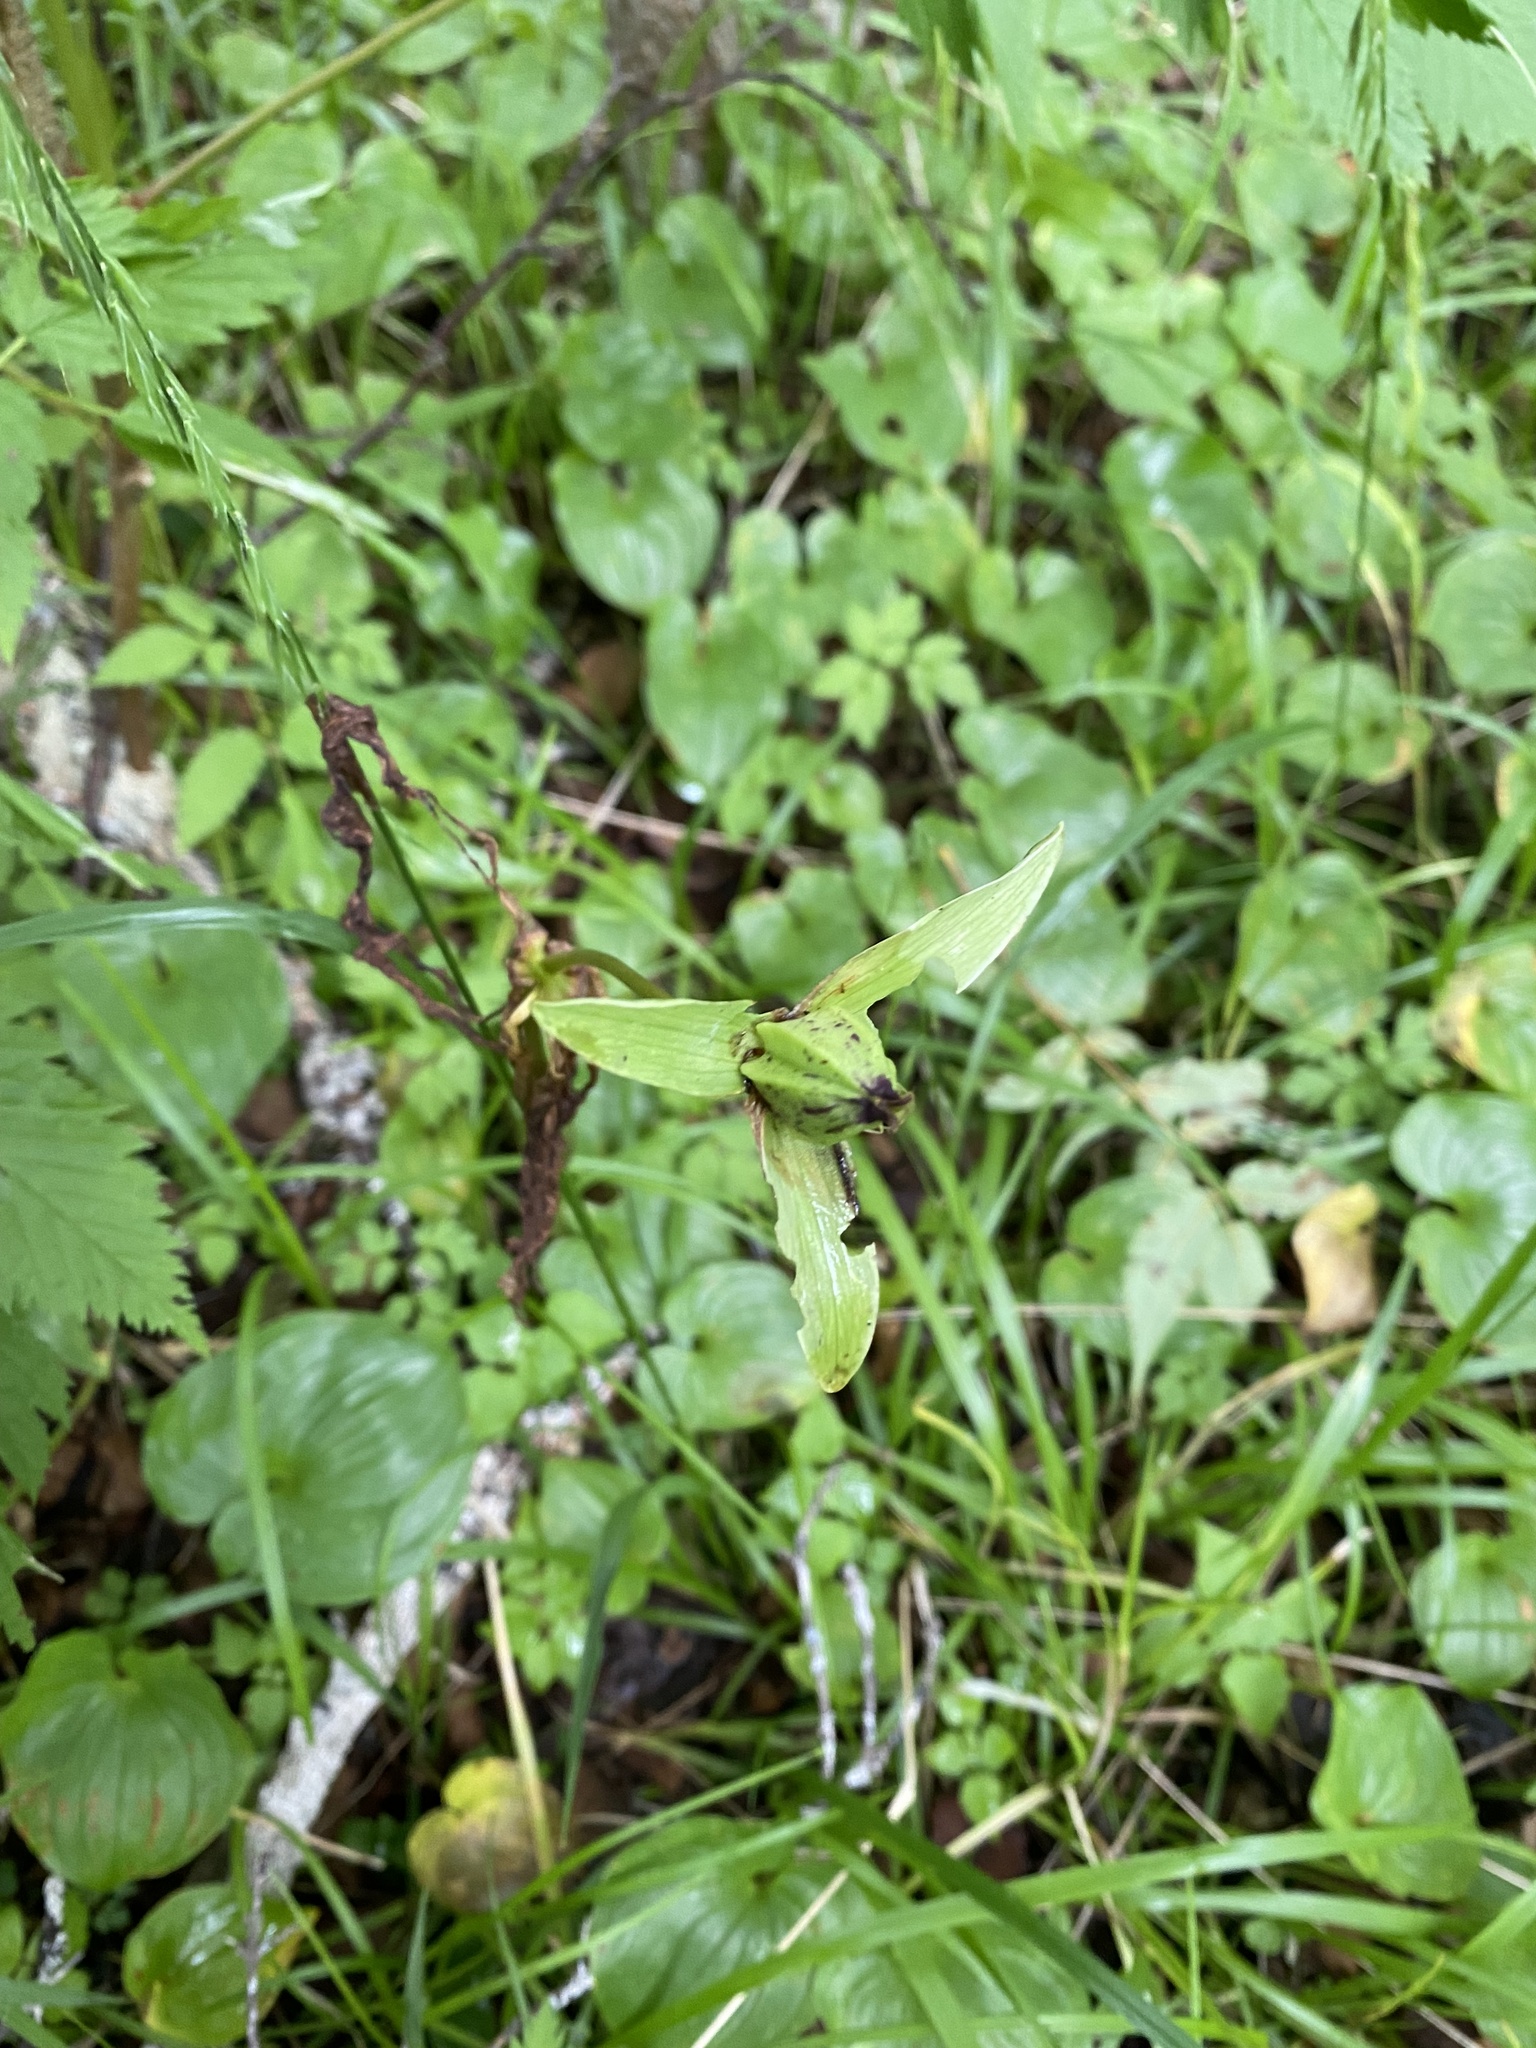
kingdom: Plantae
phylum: Tracheophyta
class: Liliopsida
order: Liliales
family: Melanthiaceae
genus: Trillium
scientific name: Trillium camschatcense
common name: Kamchatka trillium
